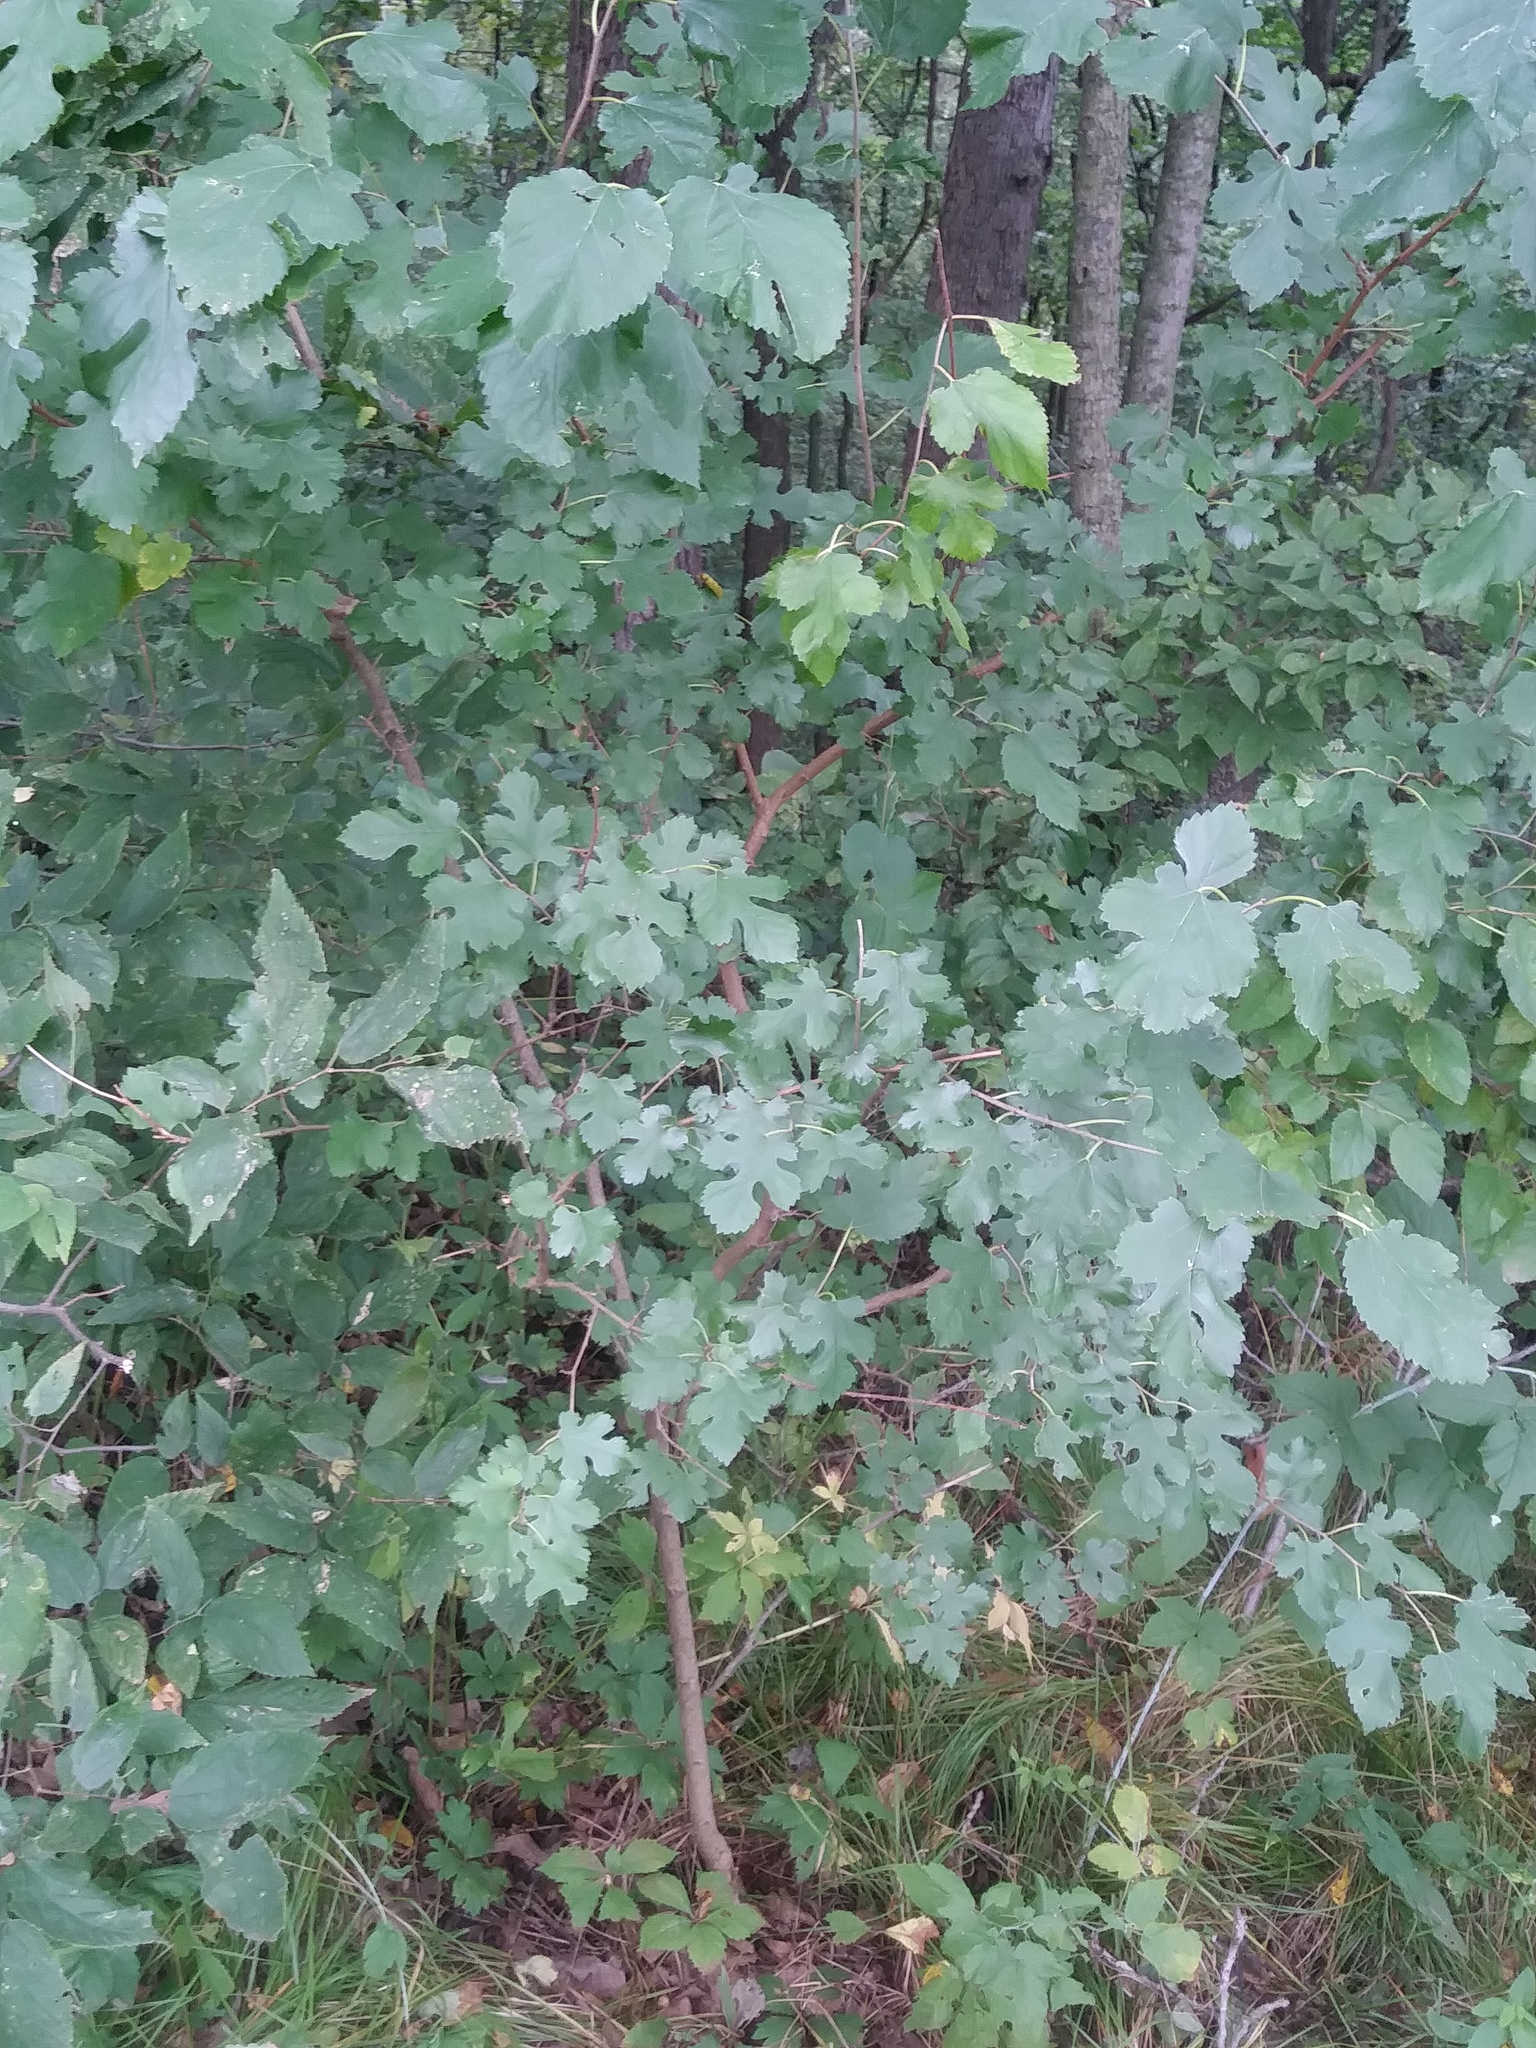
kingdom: Plantae
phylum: Tracheophyta
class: Magnoliopsida
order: Rosales
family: Moraceae
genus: Morus
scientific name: Morus alba
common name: White mulberry
